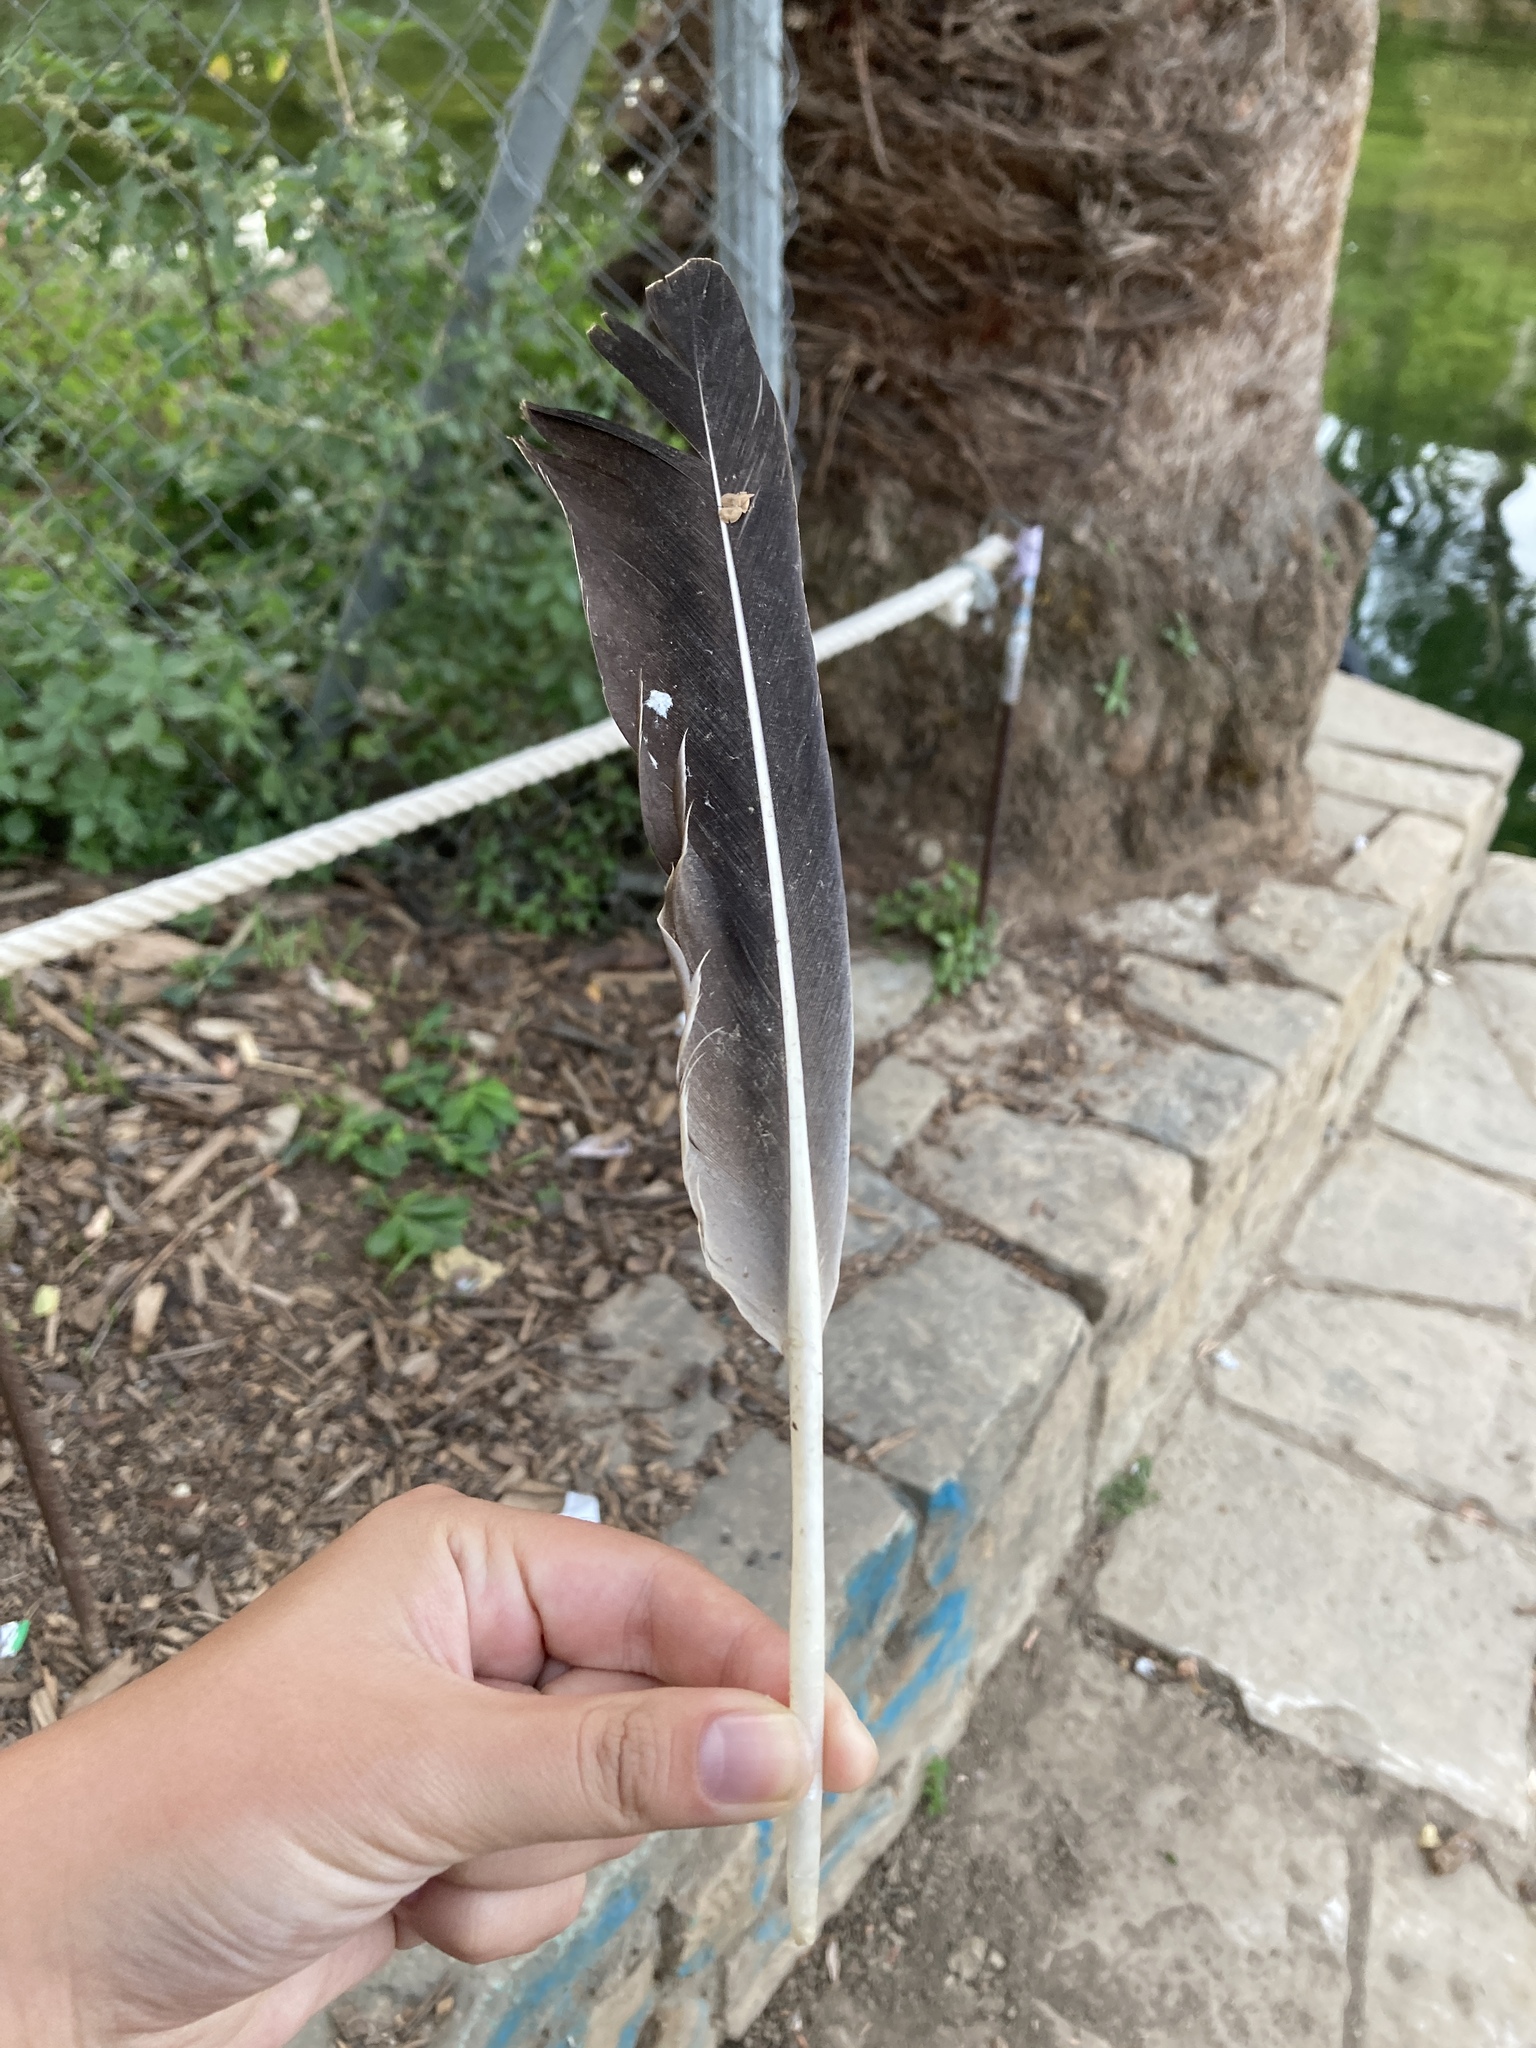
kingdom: Animalia
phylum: Chordata
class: Aves
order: Anseriformes
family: Anatidae
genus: Anser
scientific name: Anser anser
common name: Greylag goose
